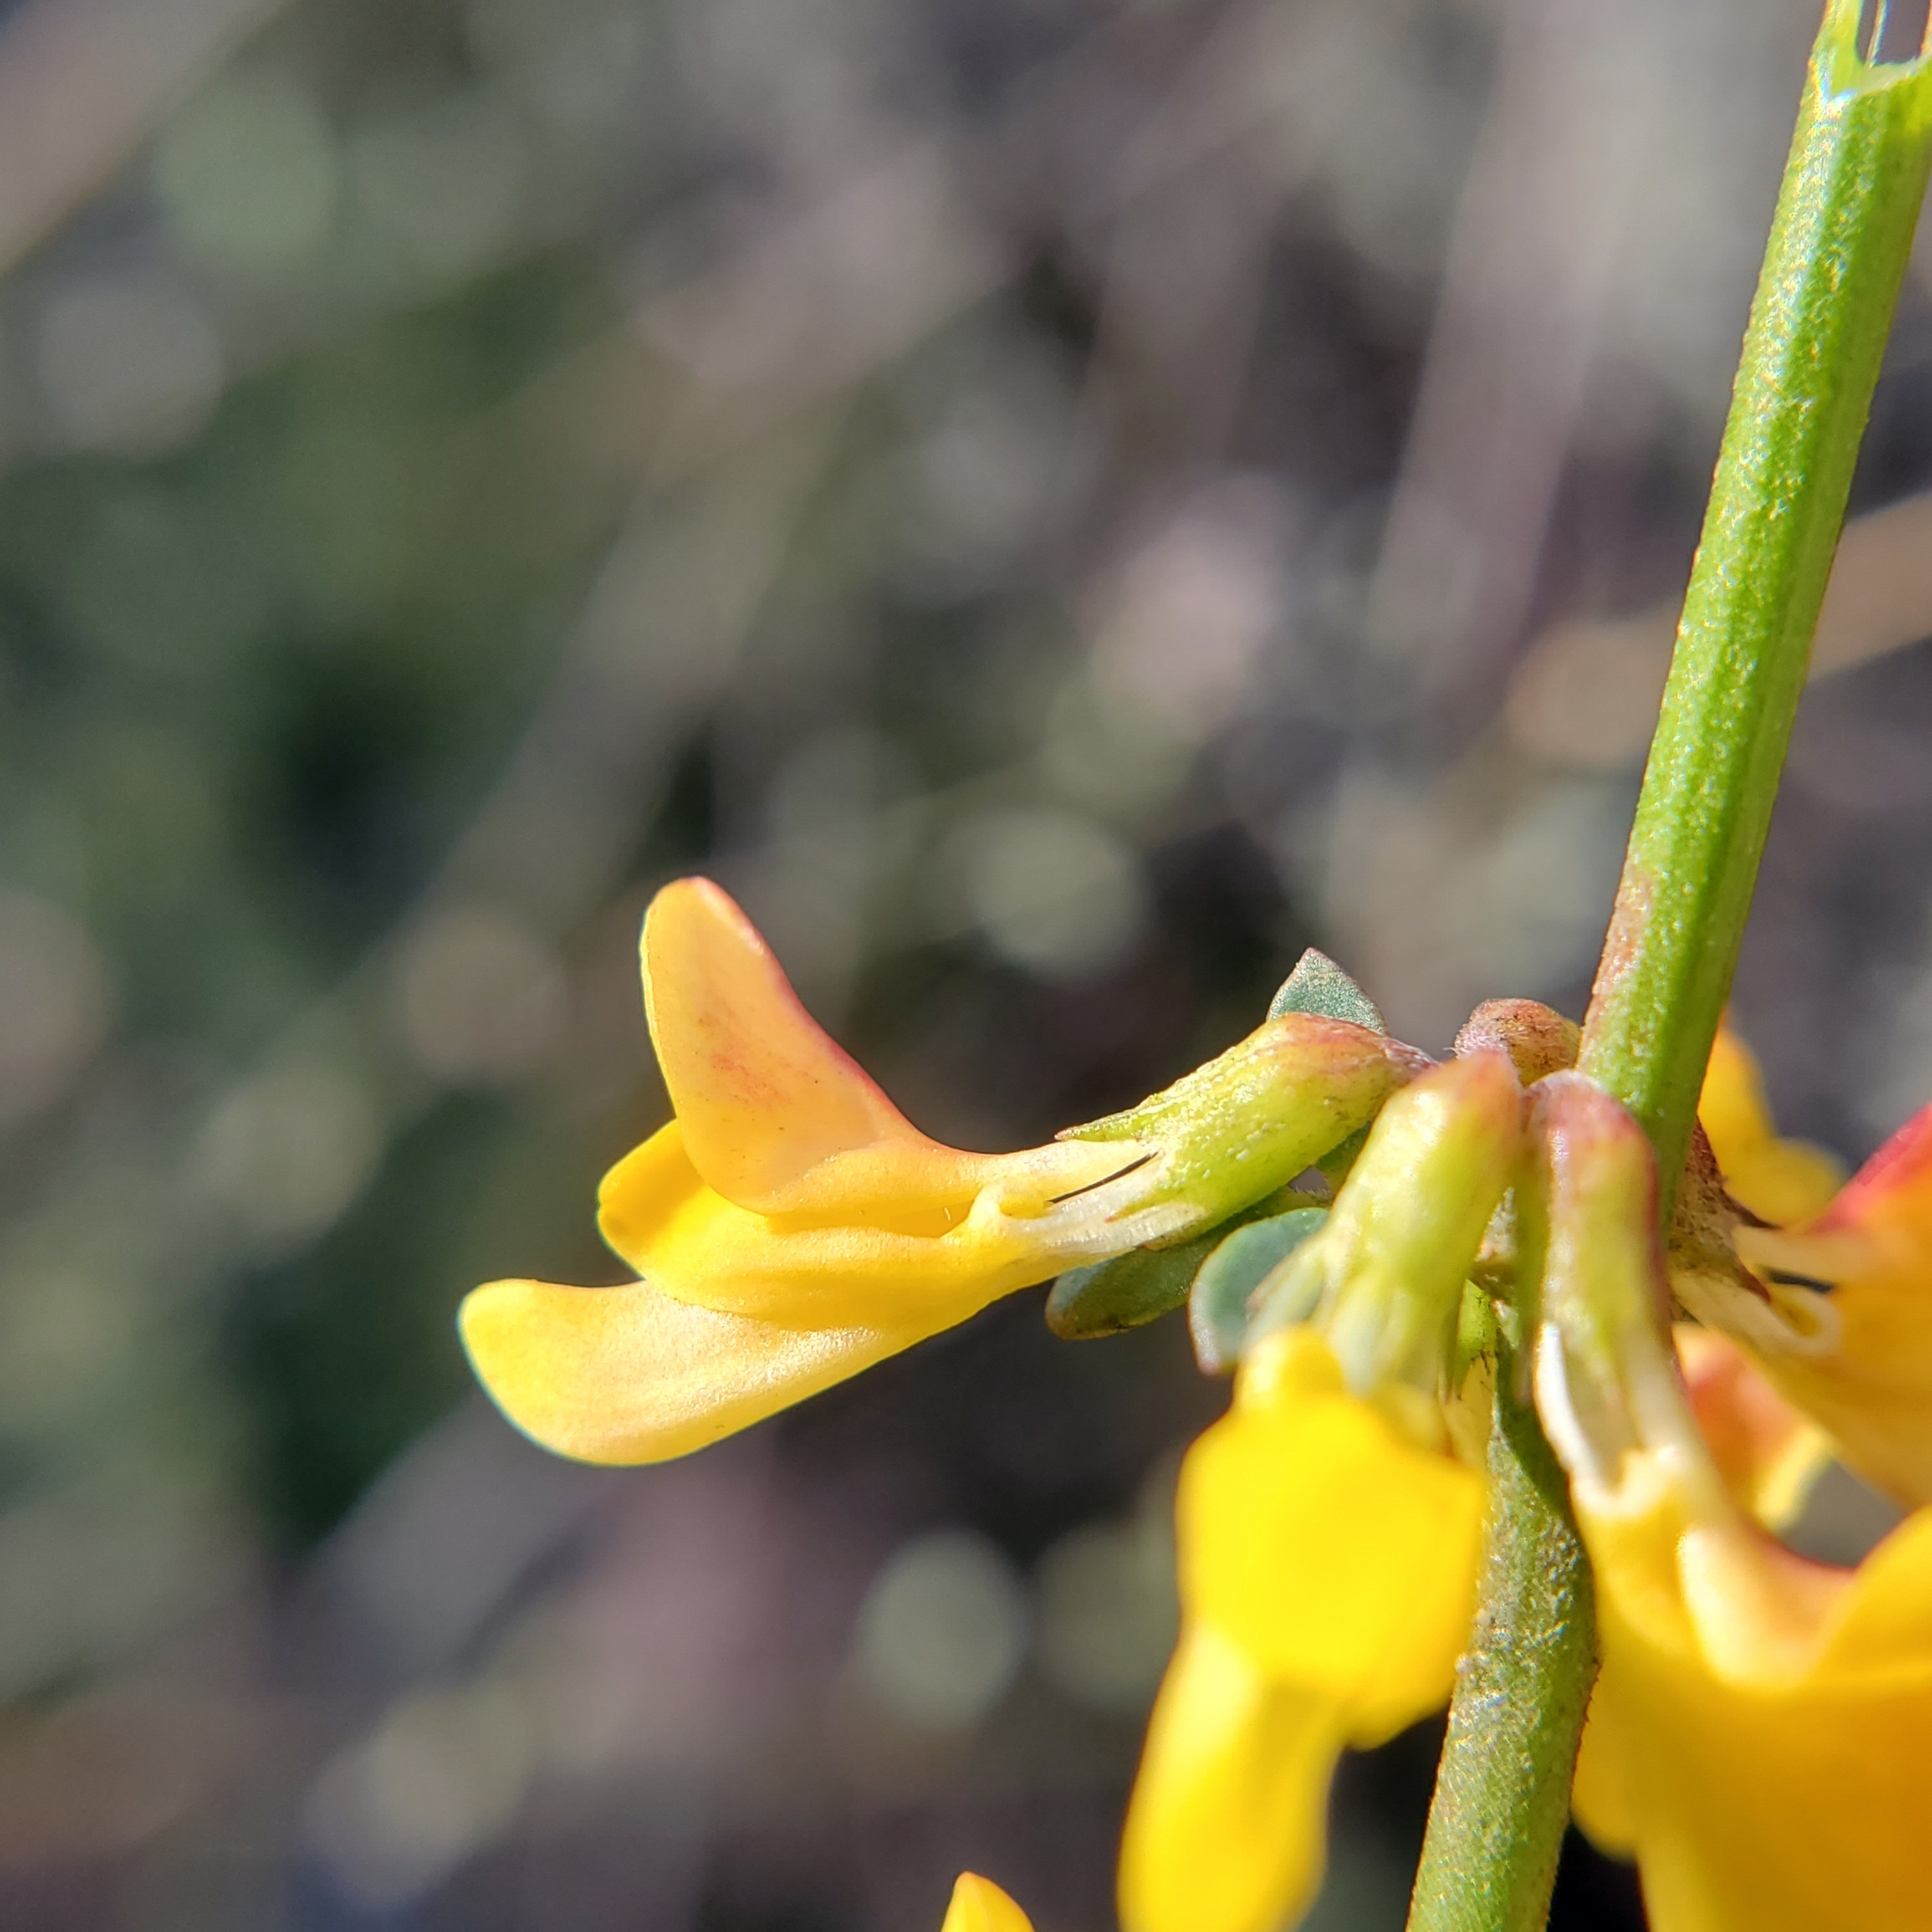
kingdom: Plantae
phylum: Tracheophyta
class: Magnoliopsida
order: Fabales
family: Fabaceae
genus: Acmispon
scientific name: Acmispon glaber
